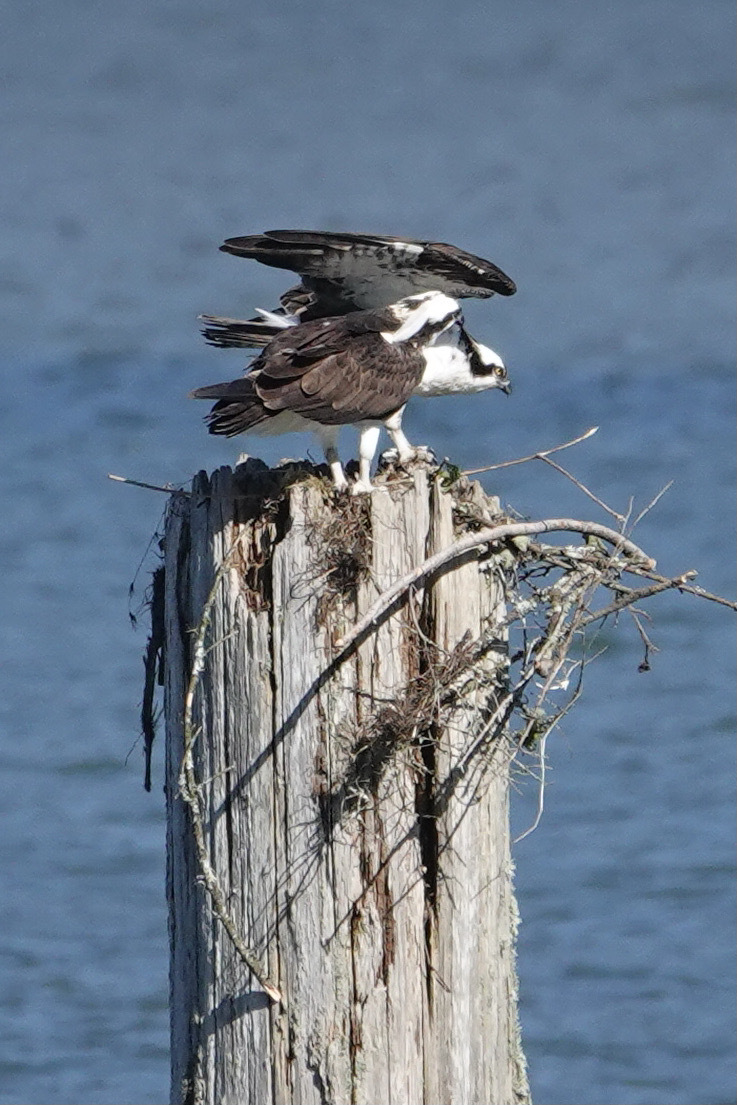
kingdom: Animalia
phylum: Chordata
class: Aves
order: Accipitriformes
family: Pandionidae
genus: Pandion
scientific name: Pandion haliaetus
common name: Osprey
